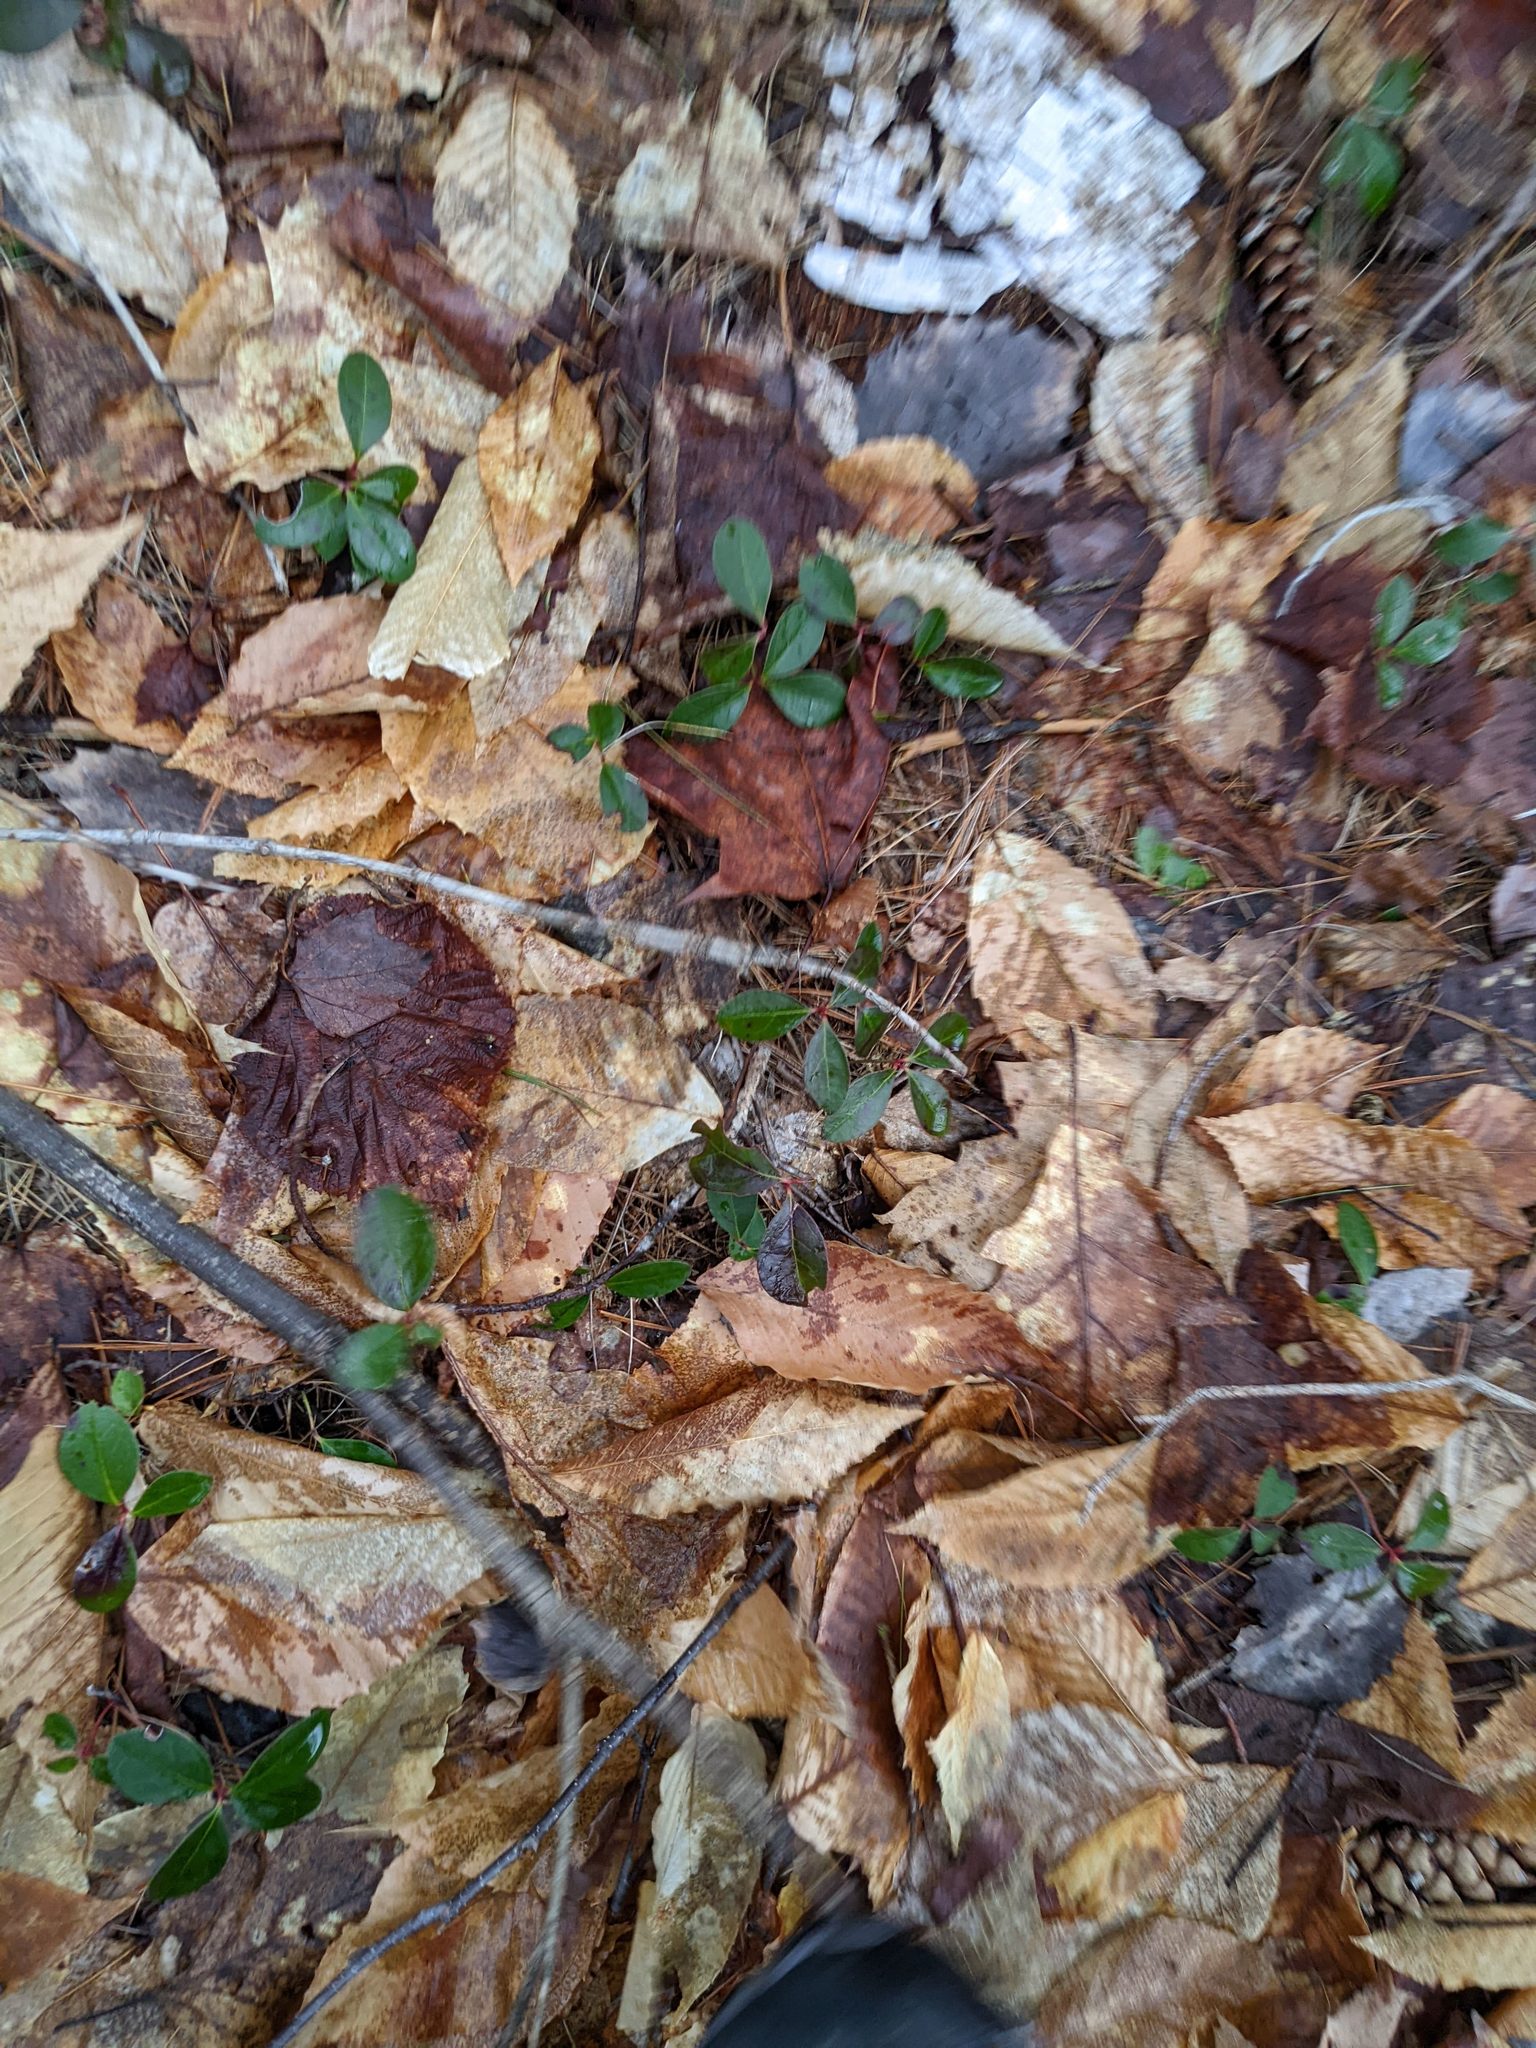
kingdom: Plantae
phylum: Tracheophyta
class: Magnoliopsida
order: Ericales
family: Ericaceae
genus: Gaultheria
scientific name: Gaultheria procumbens
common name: Checkerberry
